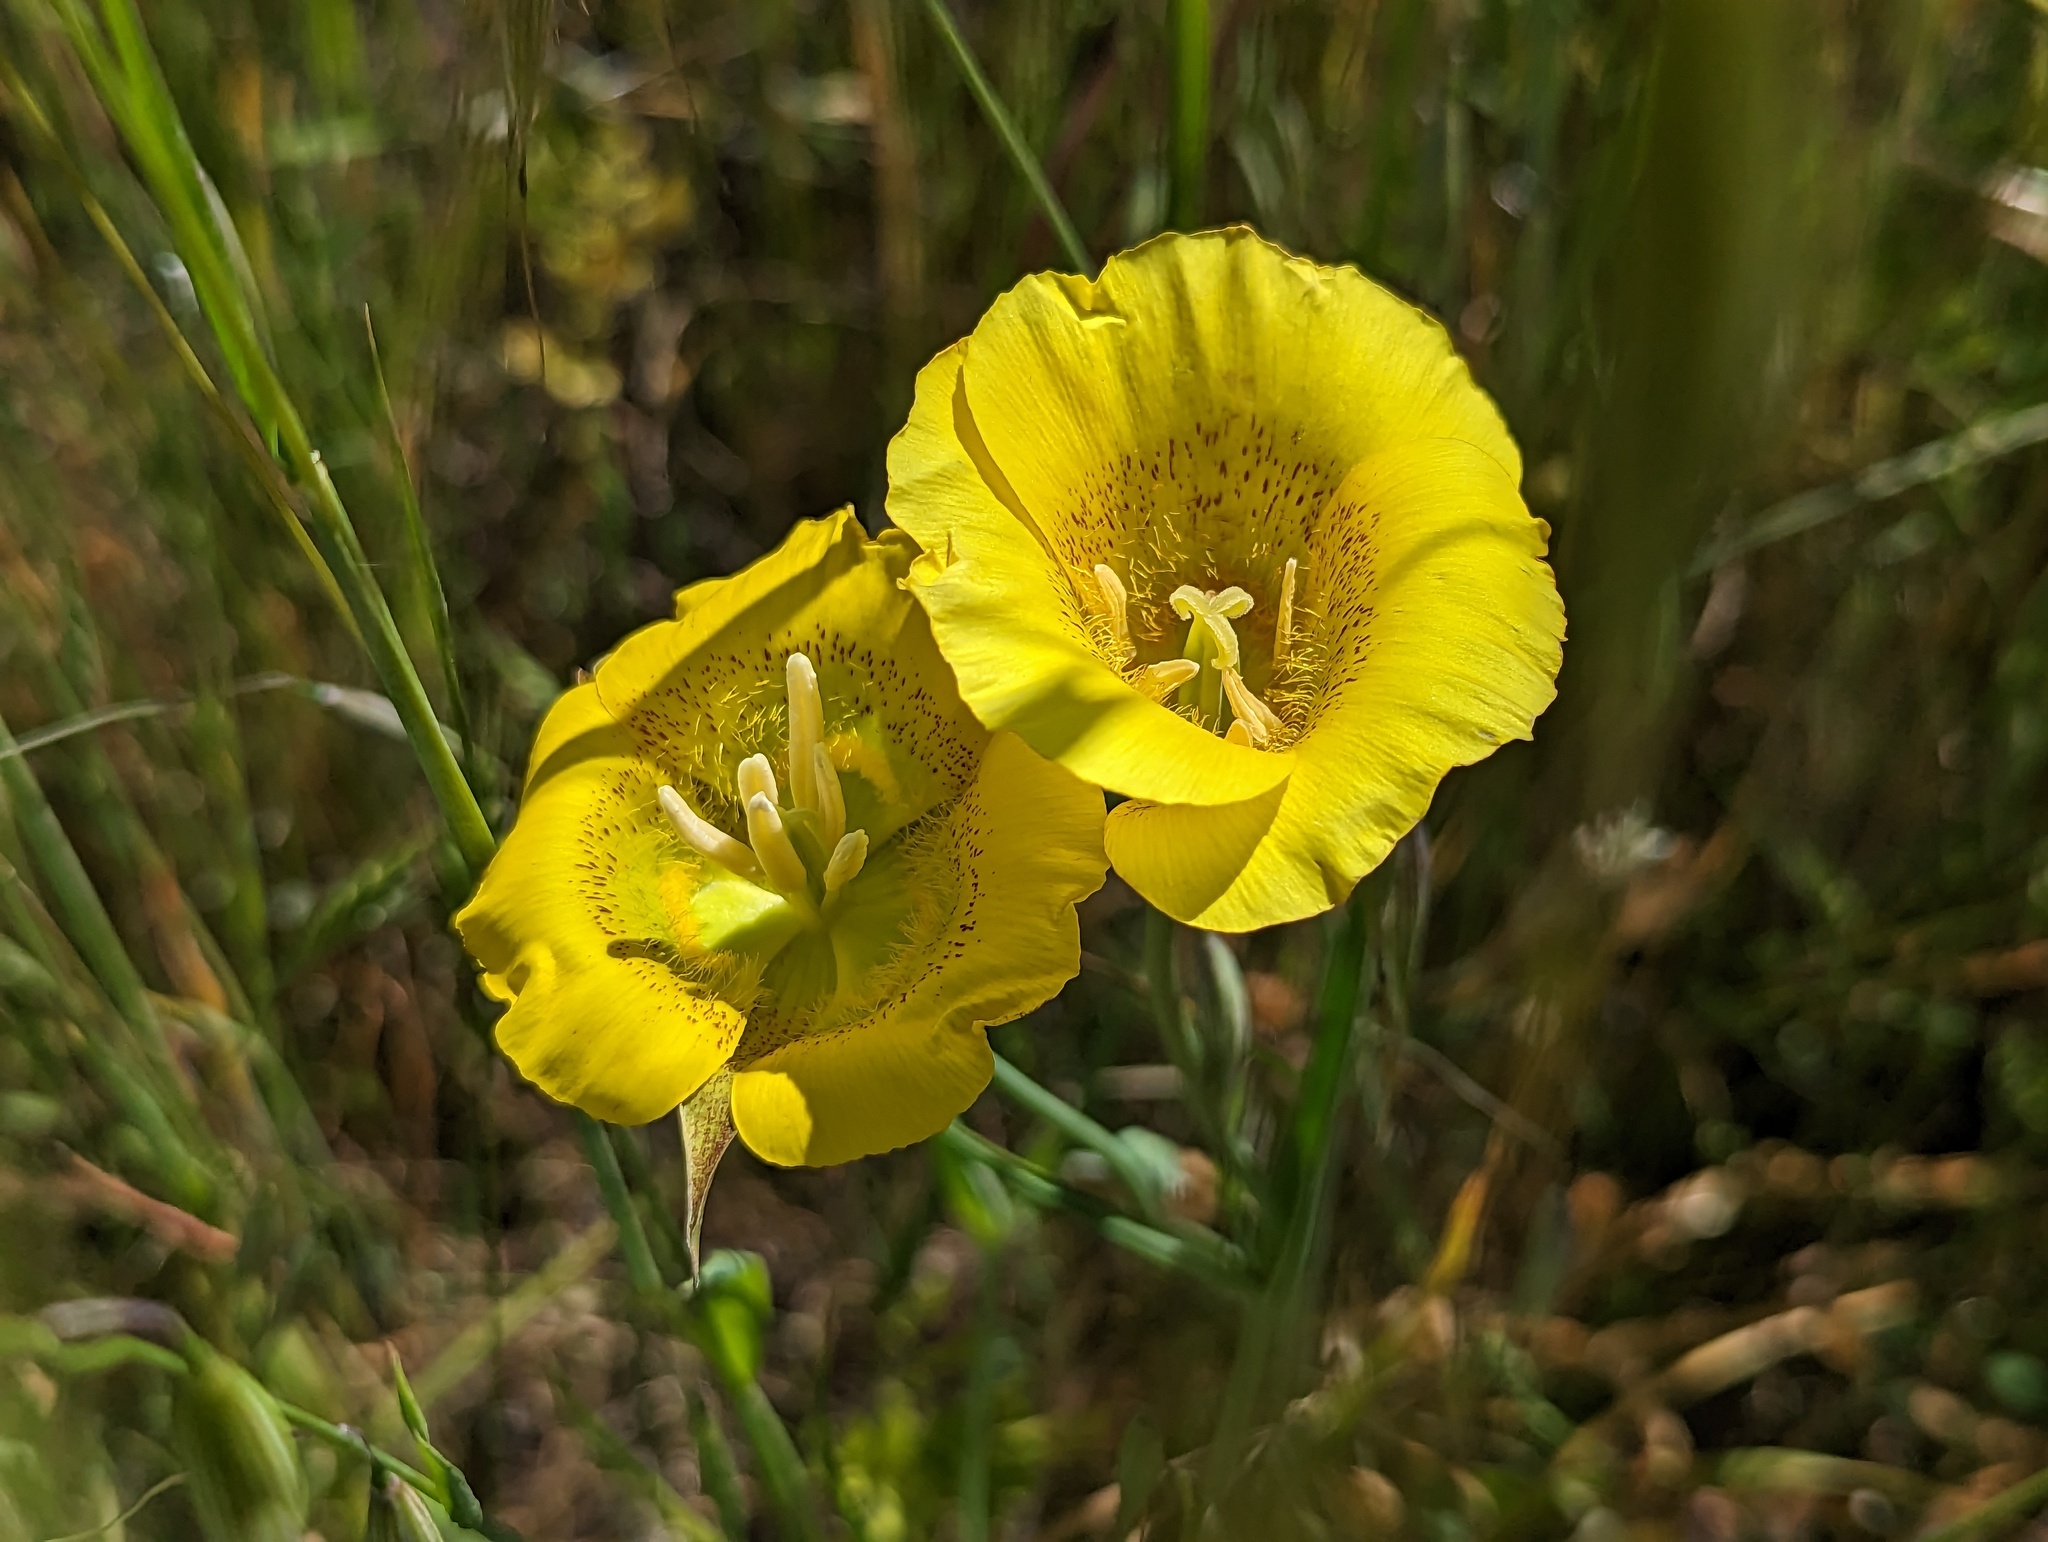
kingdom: Plantae
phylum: Tracheophyta
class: Liliopsida
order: Liliales
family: Liliaceae
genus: Calochortus
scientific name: Calochortus luteus
